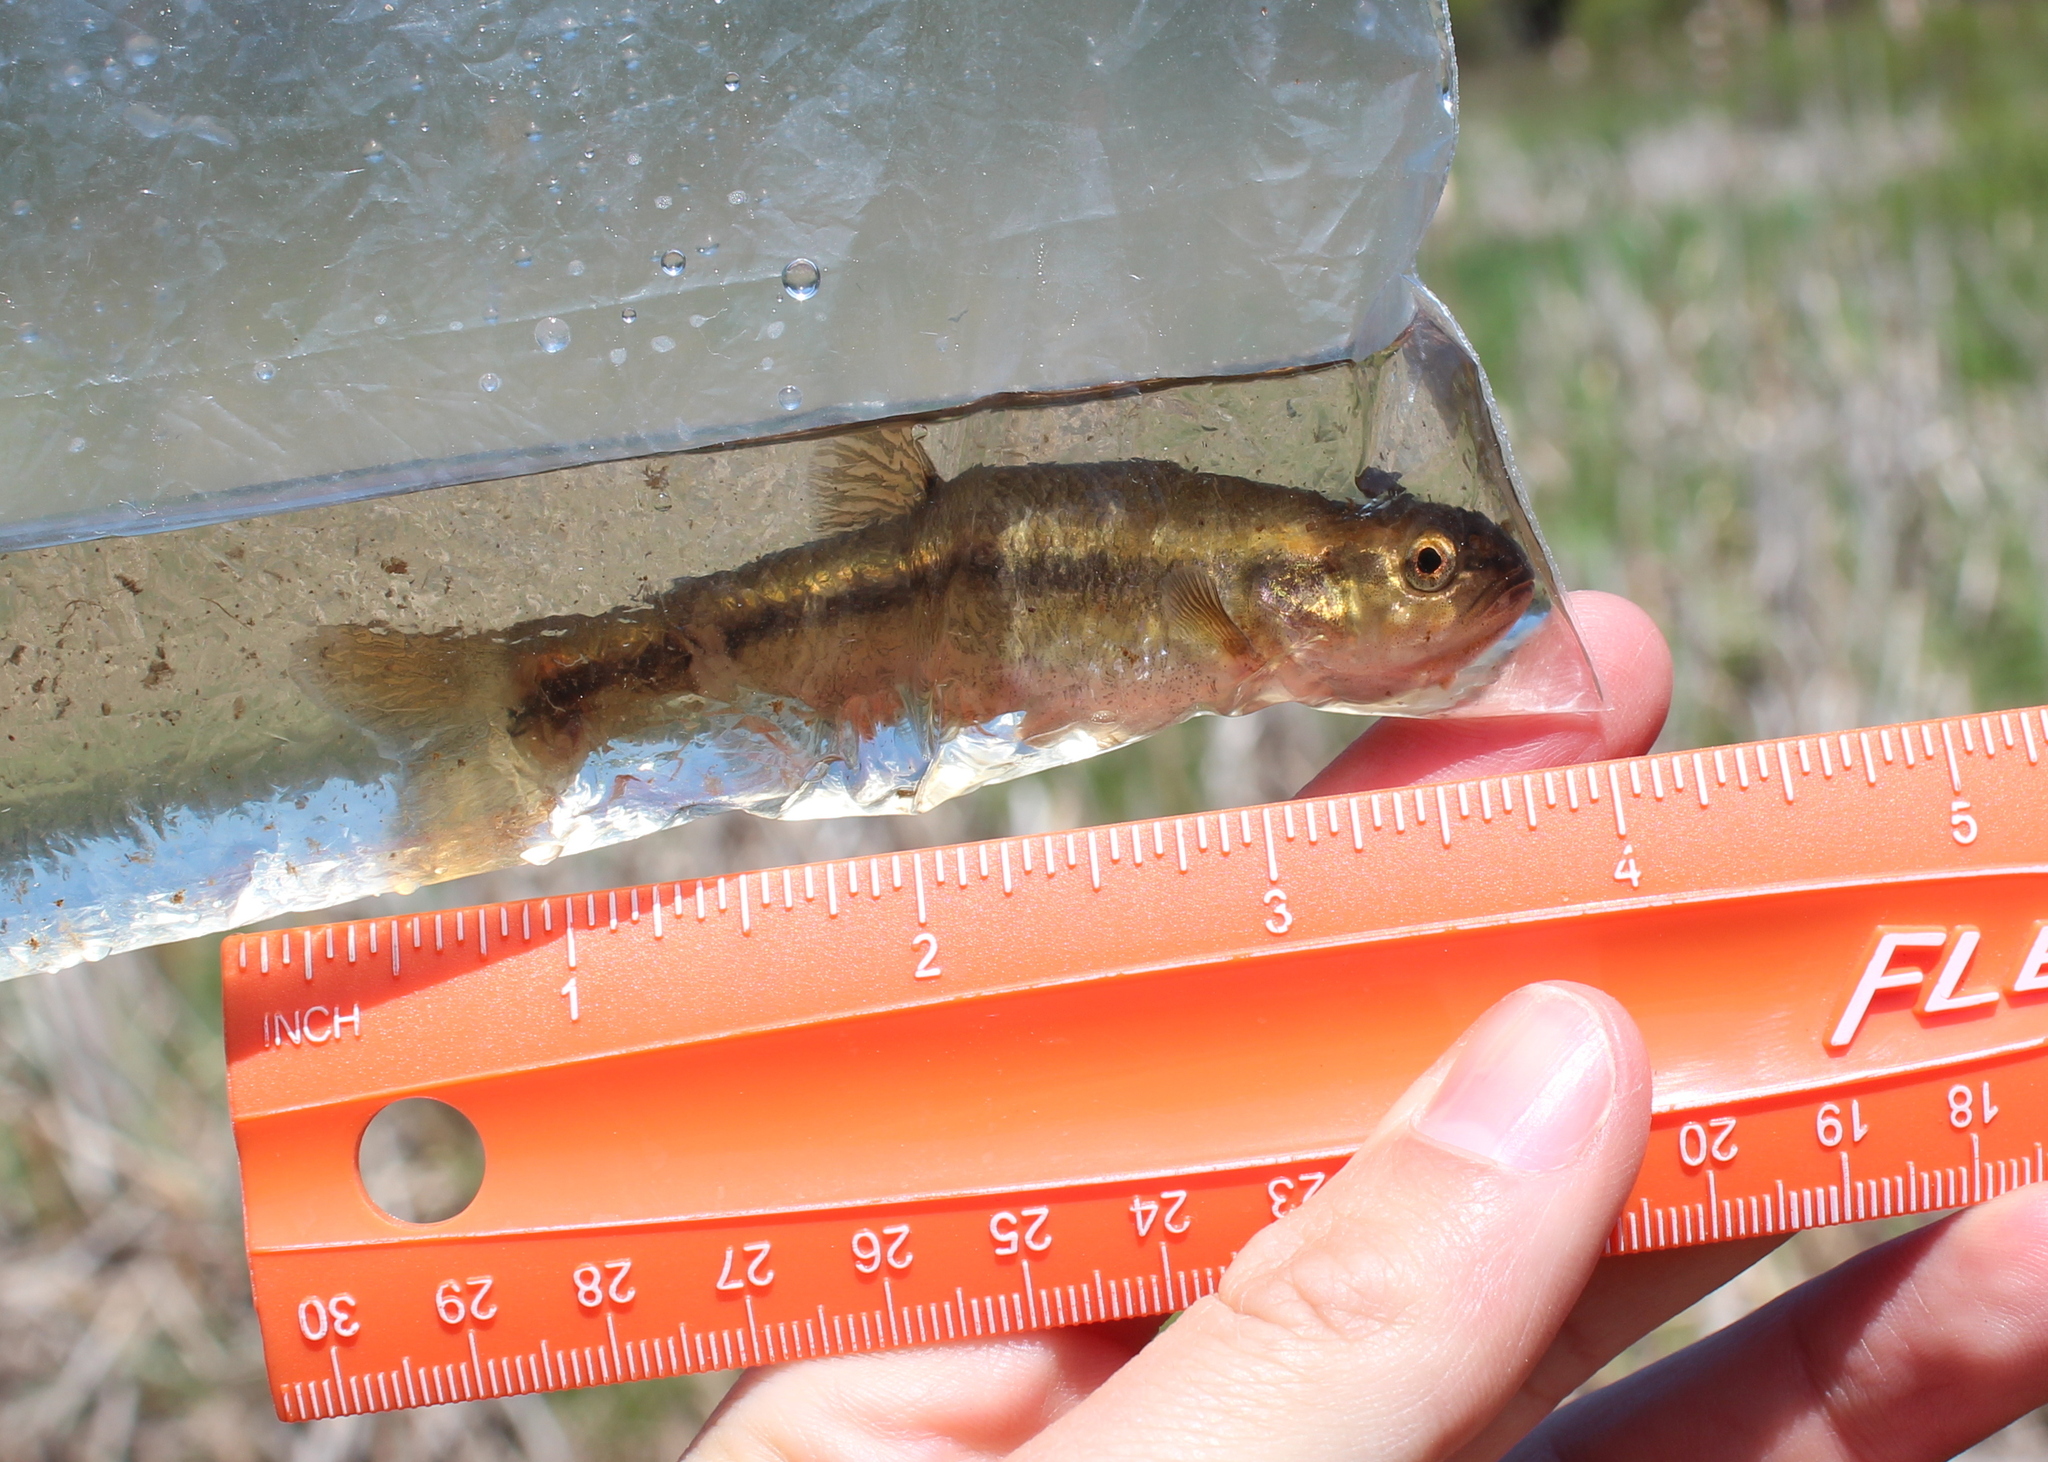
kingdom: Animalia
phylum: Chordata
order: Cypriniformes
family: Cyprinidae
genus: Semotilus
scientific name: Semotilus atromaculatus
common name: Creek chub
